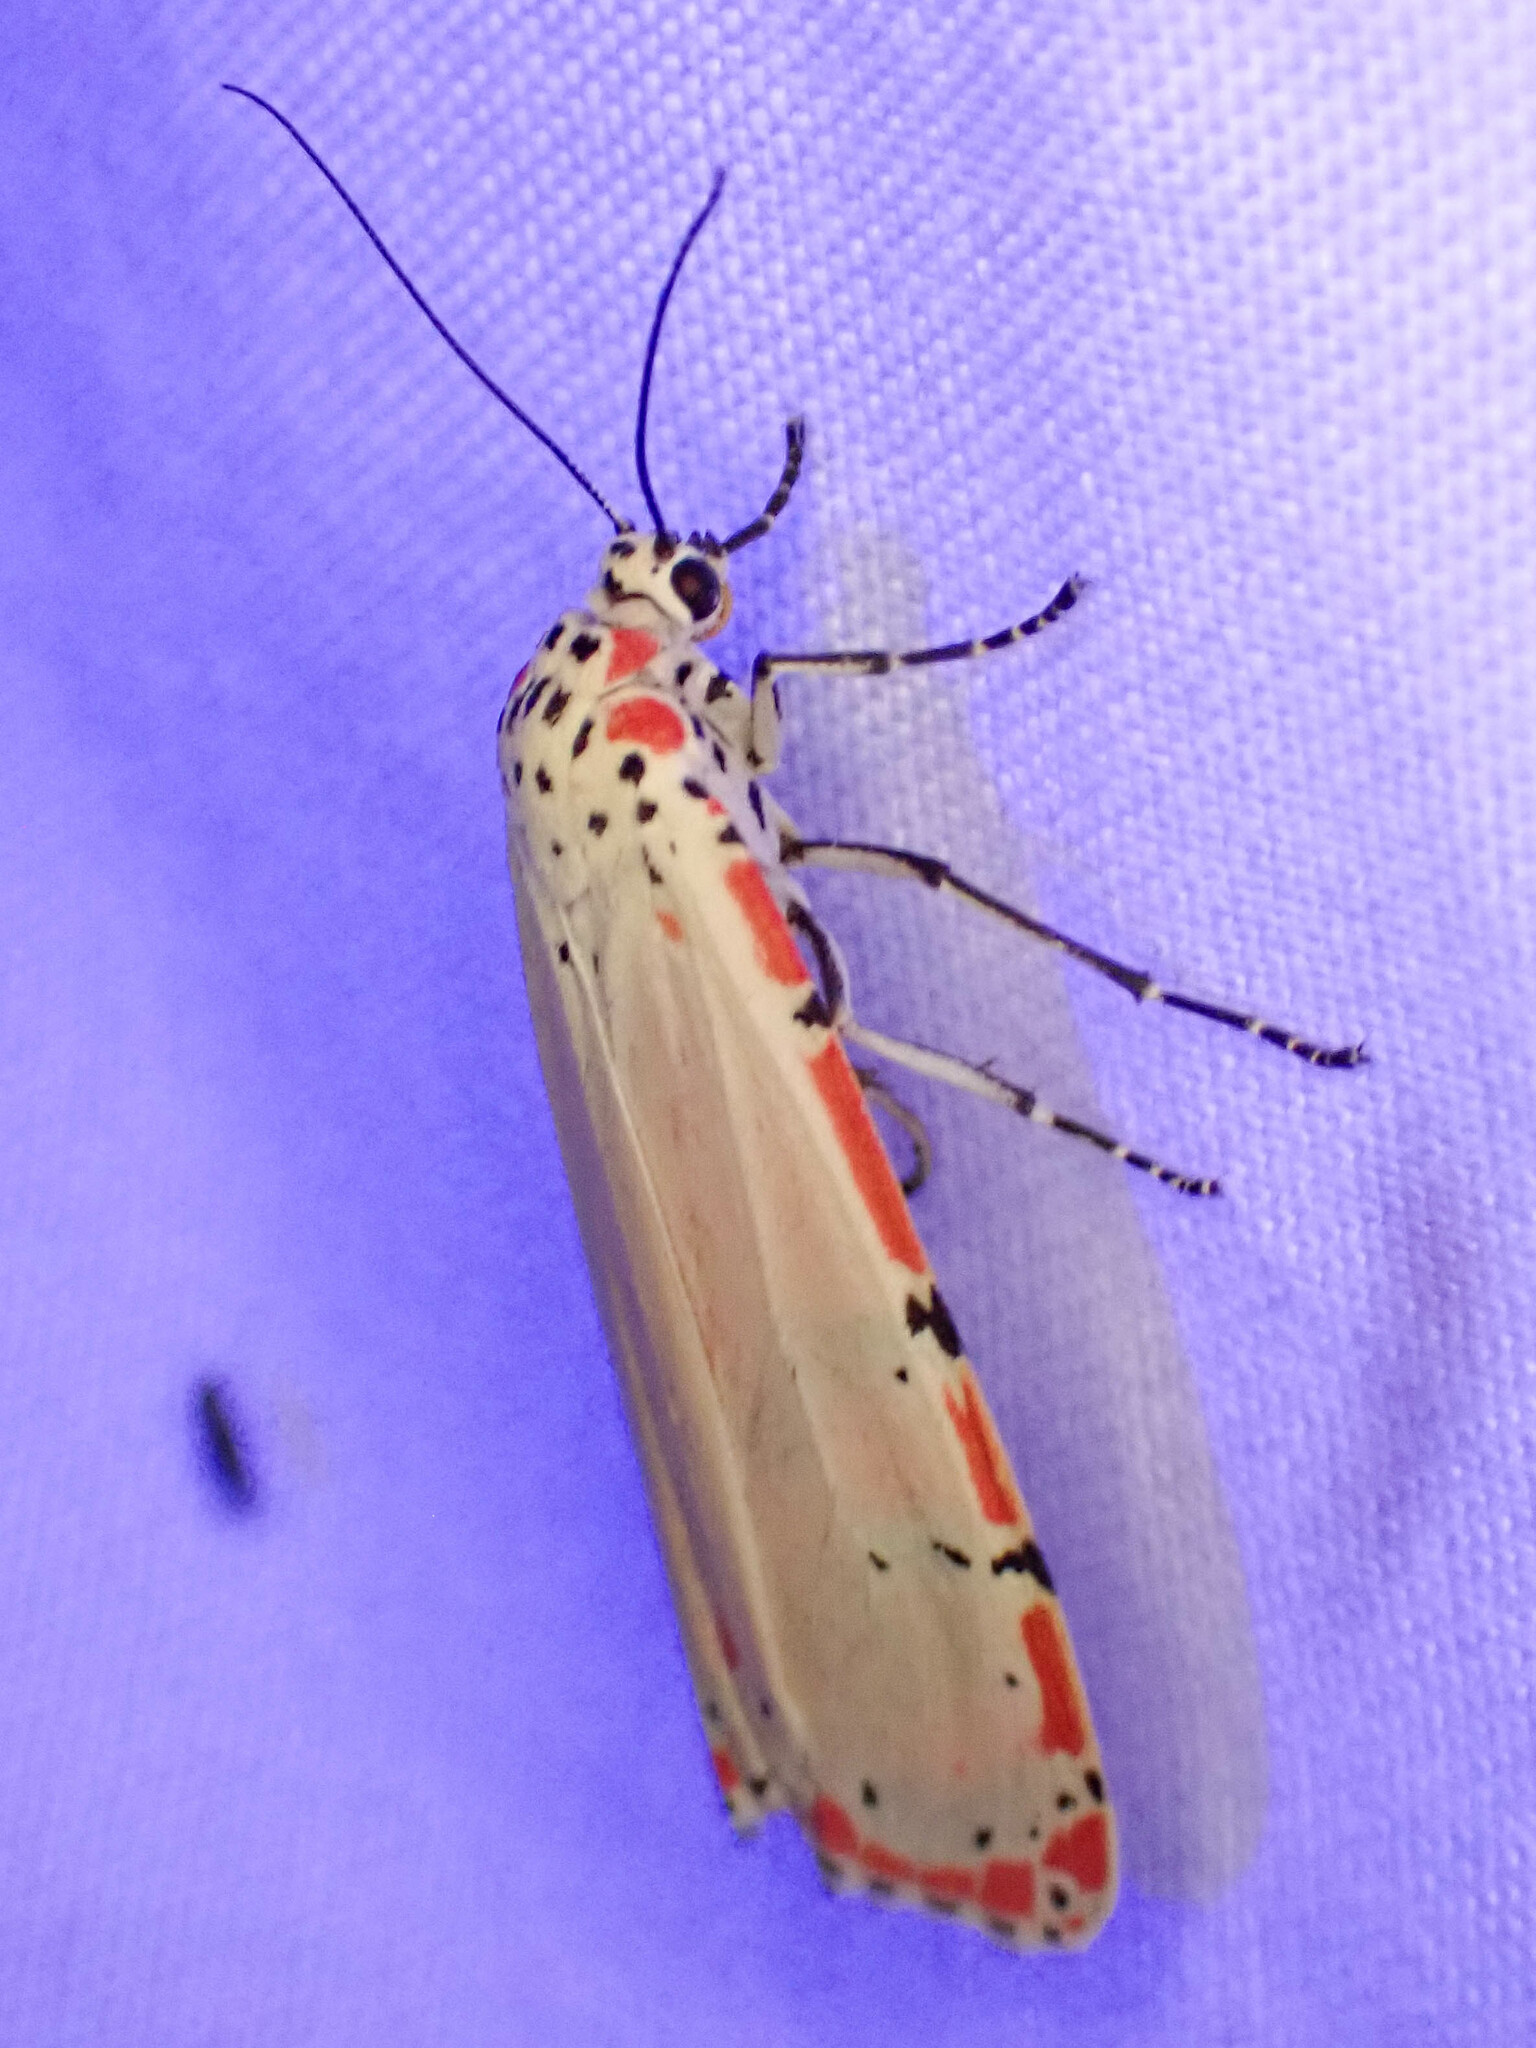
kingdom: Animalia
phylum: Arthropoda
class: Insecta
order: Lepidoptera
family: Erebidae
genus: Utetheisa
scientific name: Utetheisa ornatrix
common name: Beautiful utetheisa
